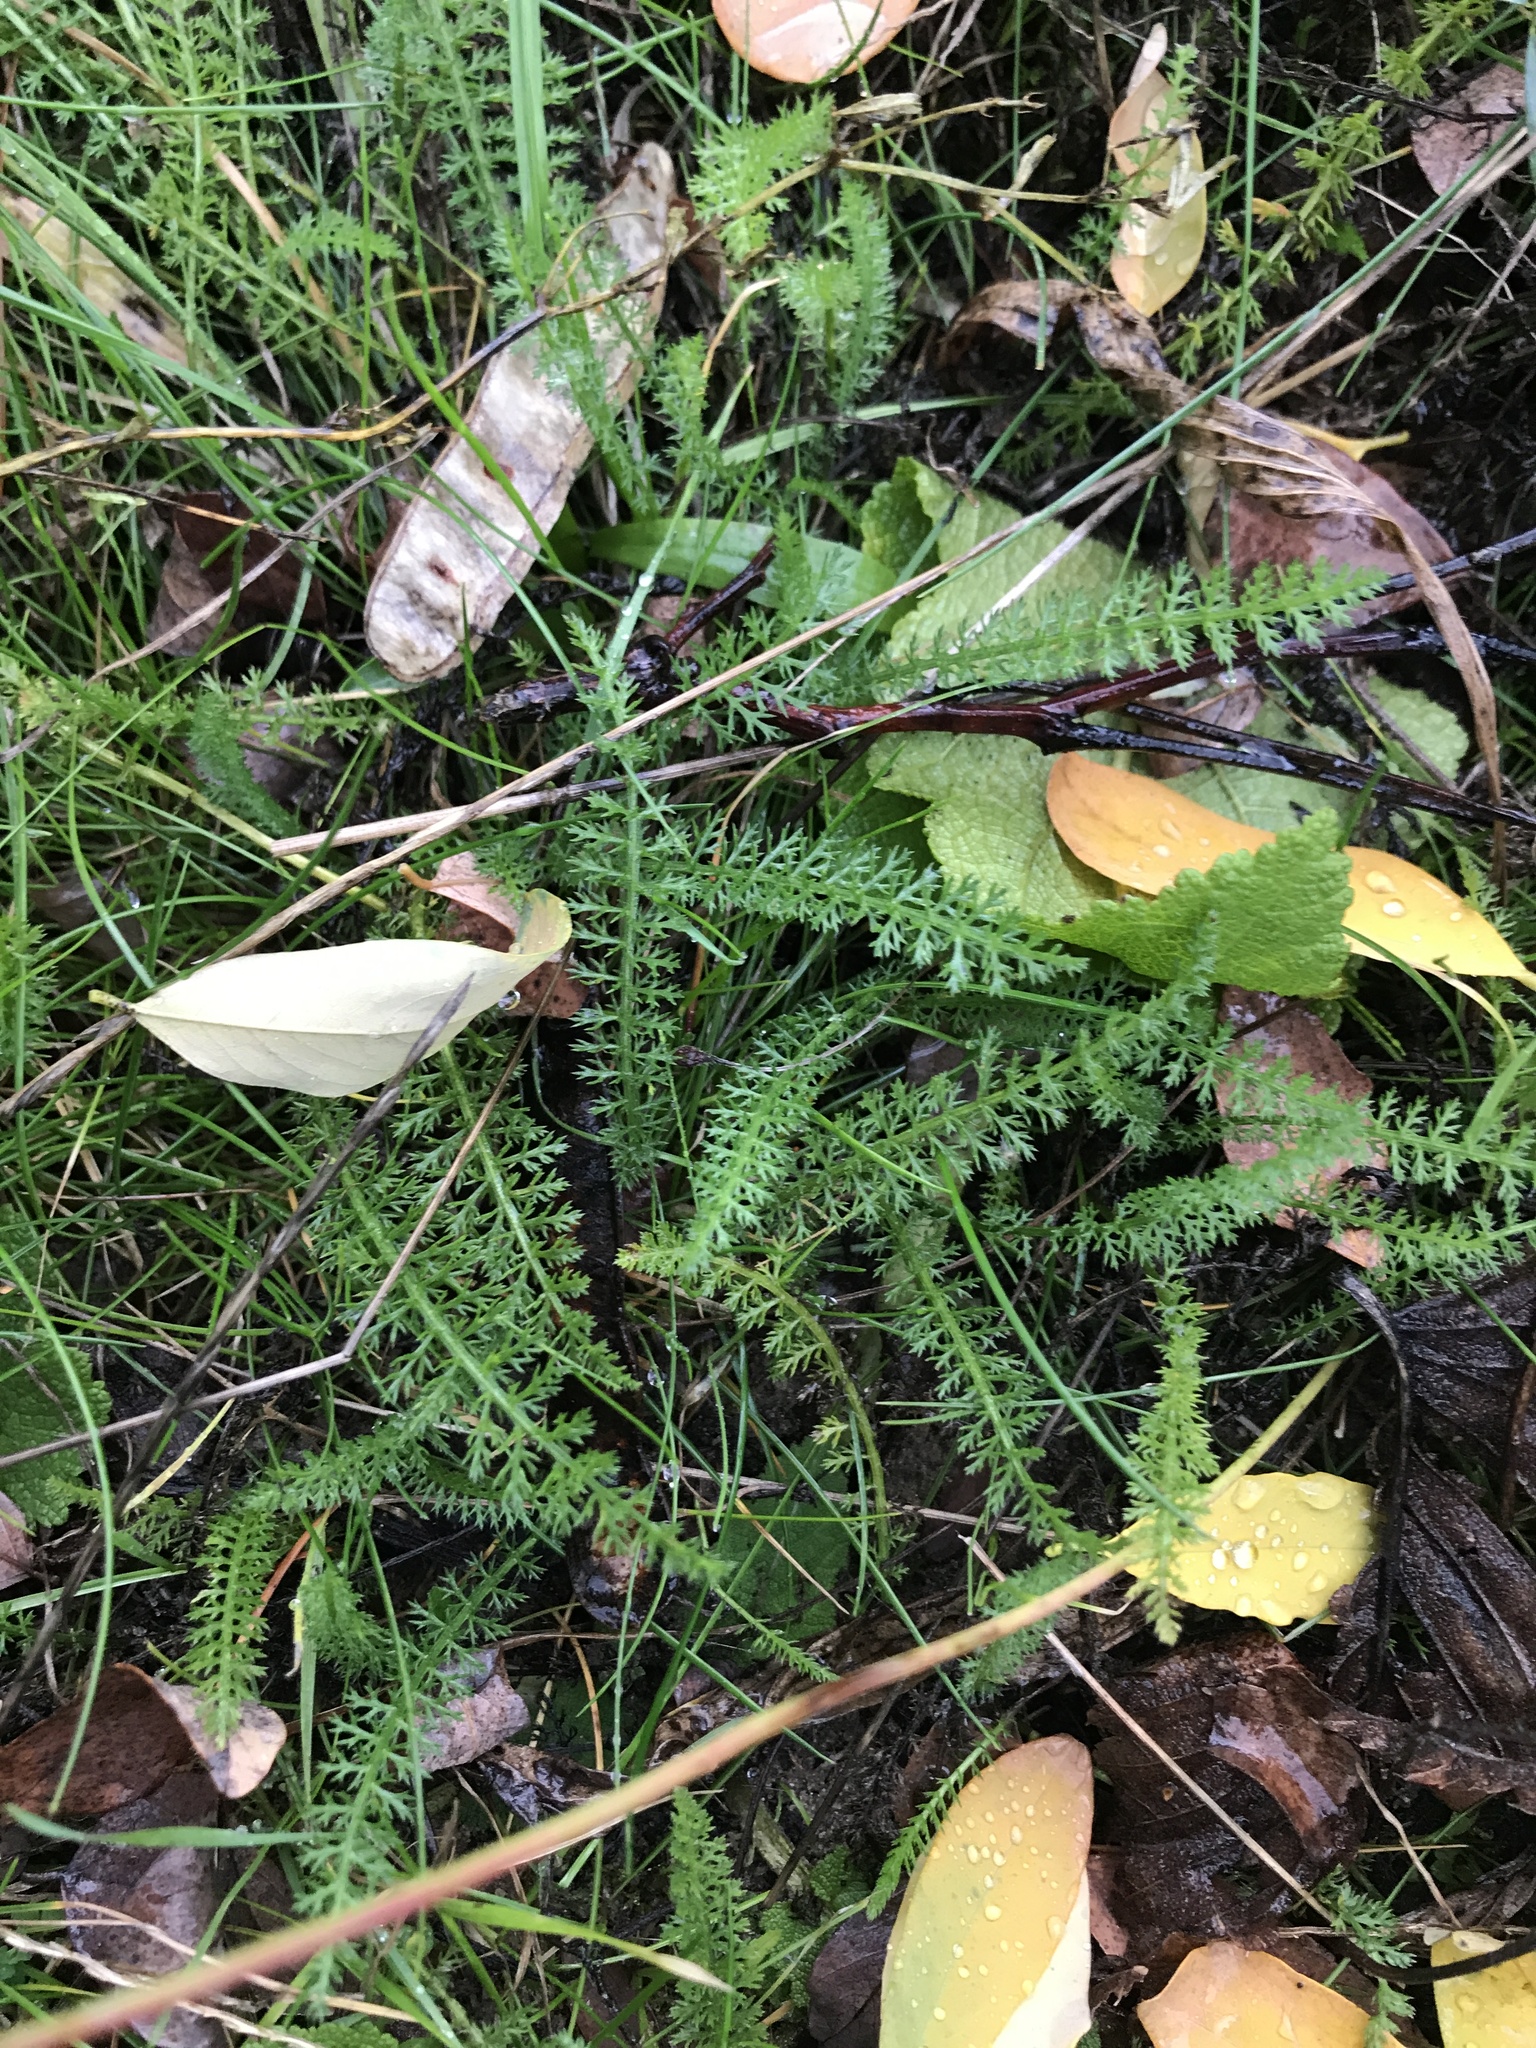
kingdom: Plantae
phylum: Tracheophyta
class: Magnoliopsida
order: Asterales
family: Asteraceae
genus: Achillea
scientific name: Achillea millefolium
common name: Yarrow
